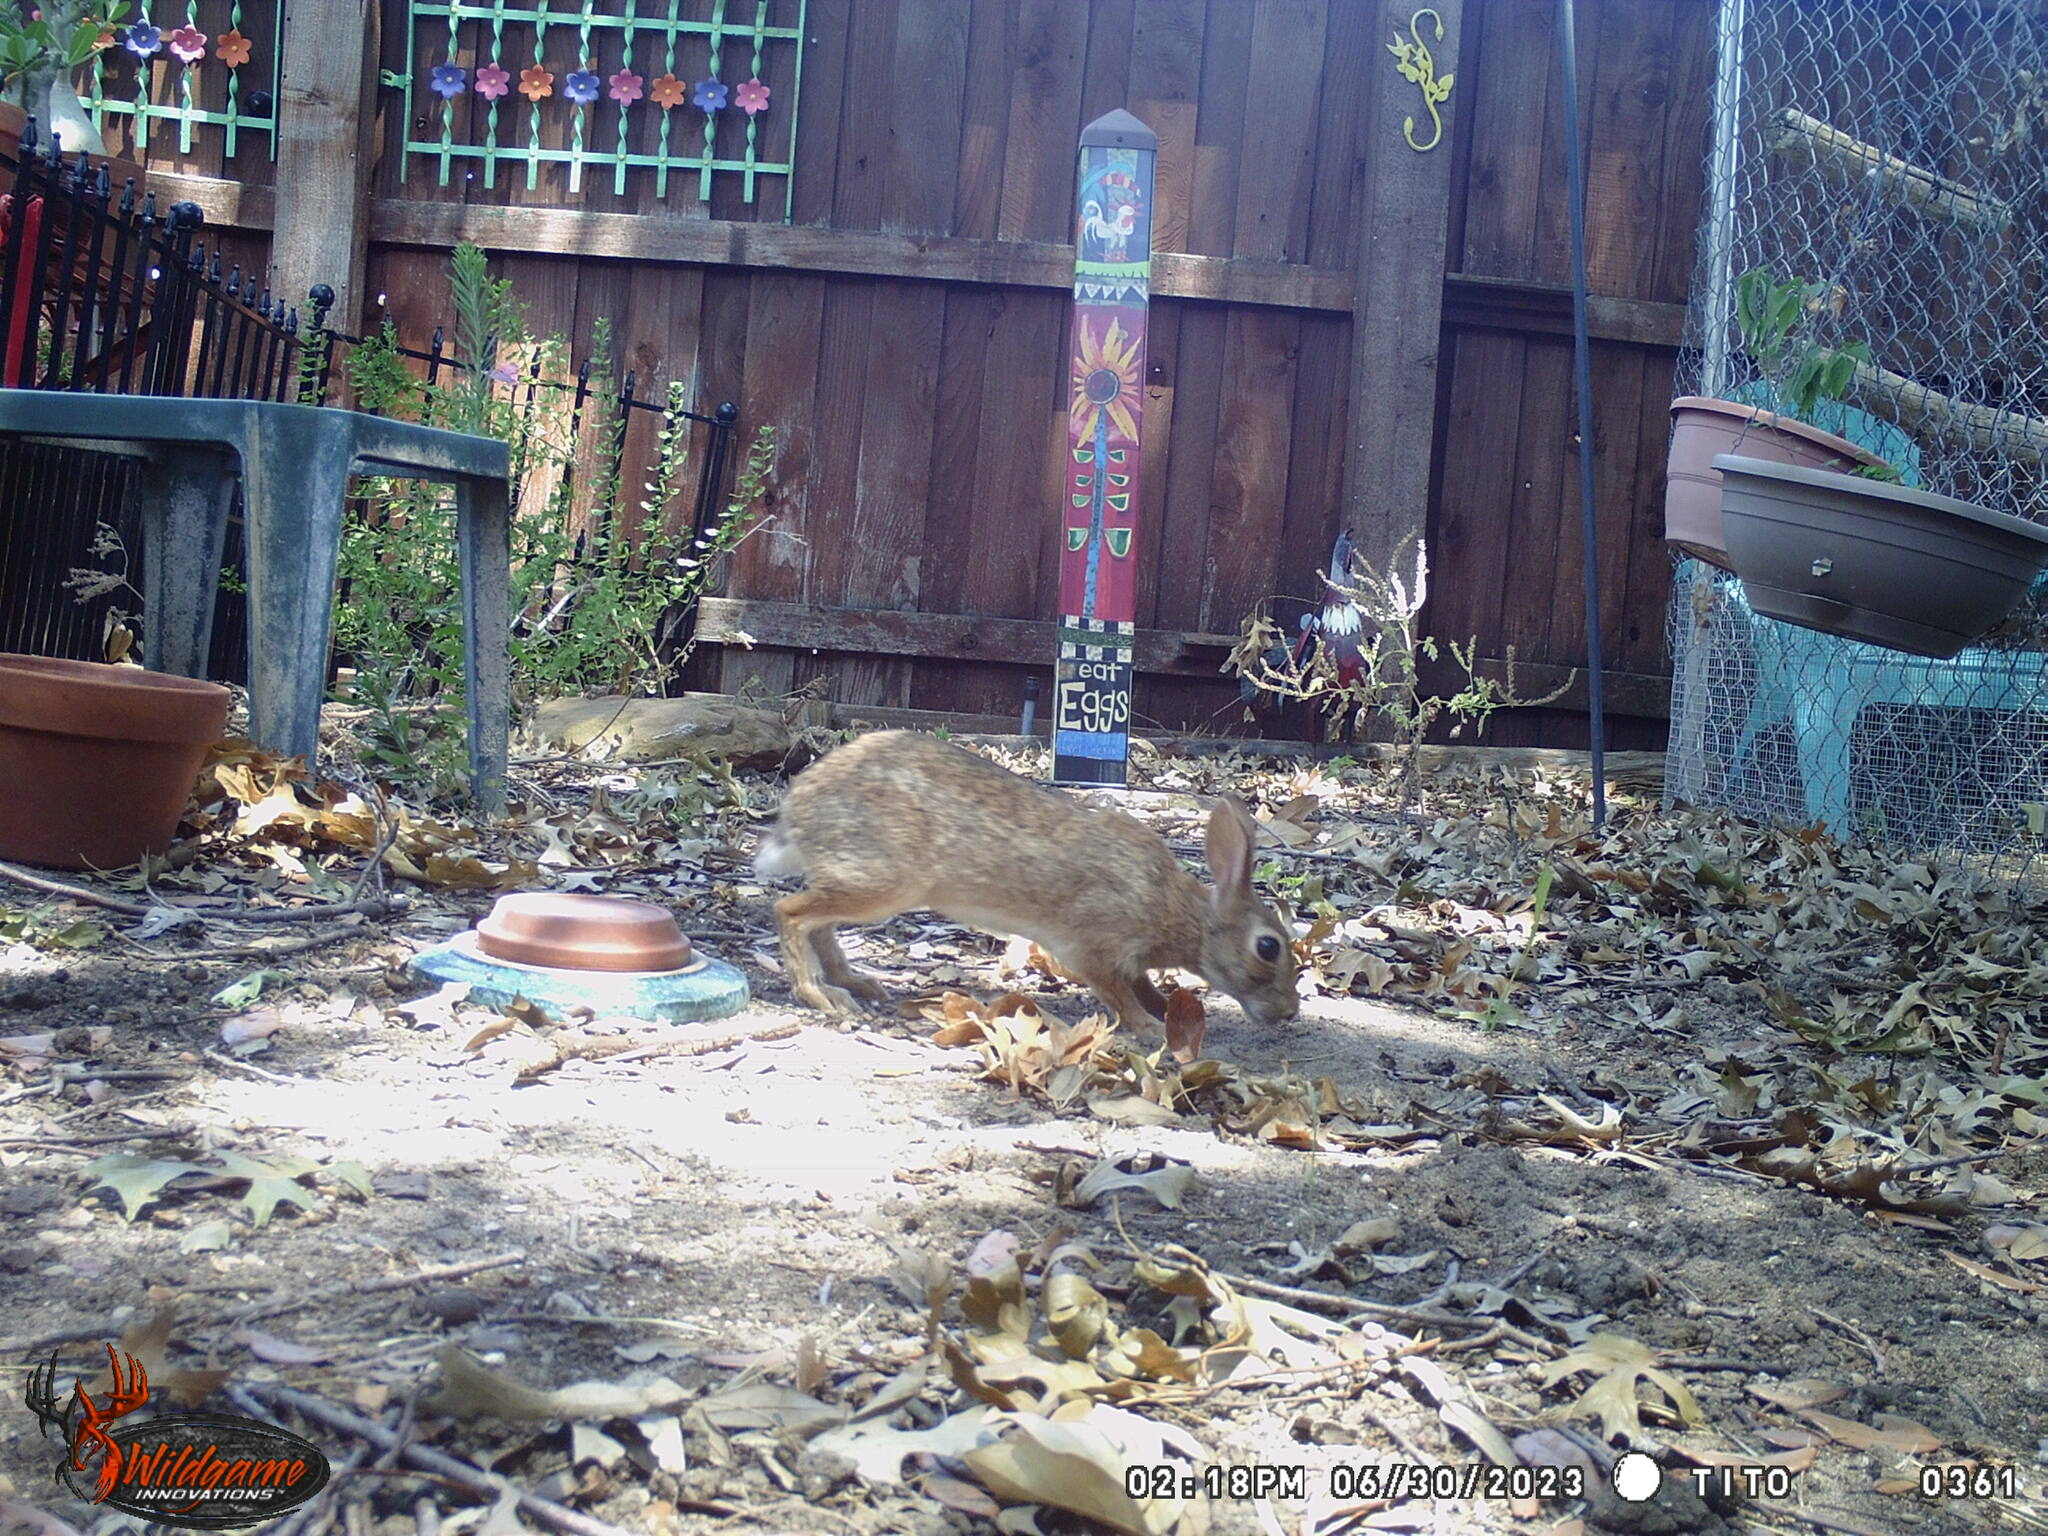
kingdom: Animalia
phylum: Chordata
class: Mammalia
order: Lagomorpha
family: Leporidae
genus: Sylvilagus
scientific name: Sylvilagus floridanus
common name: Eastern cottontail
